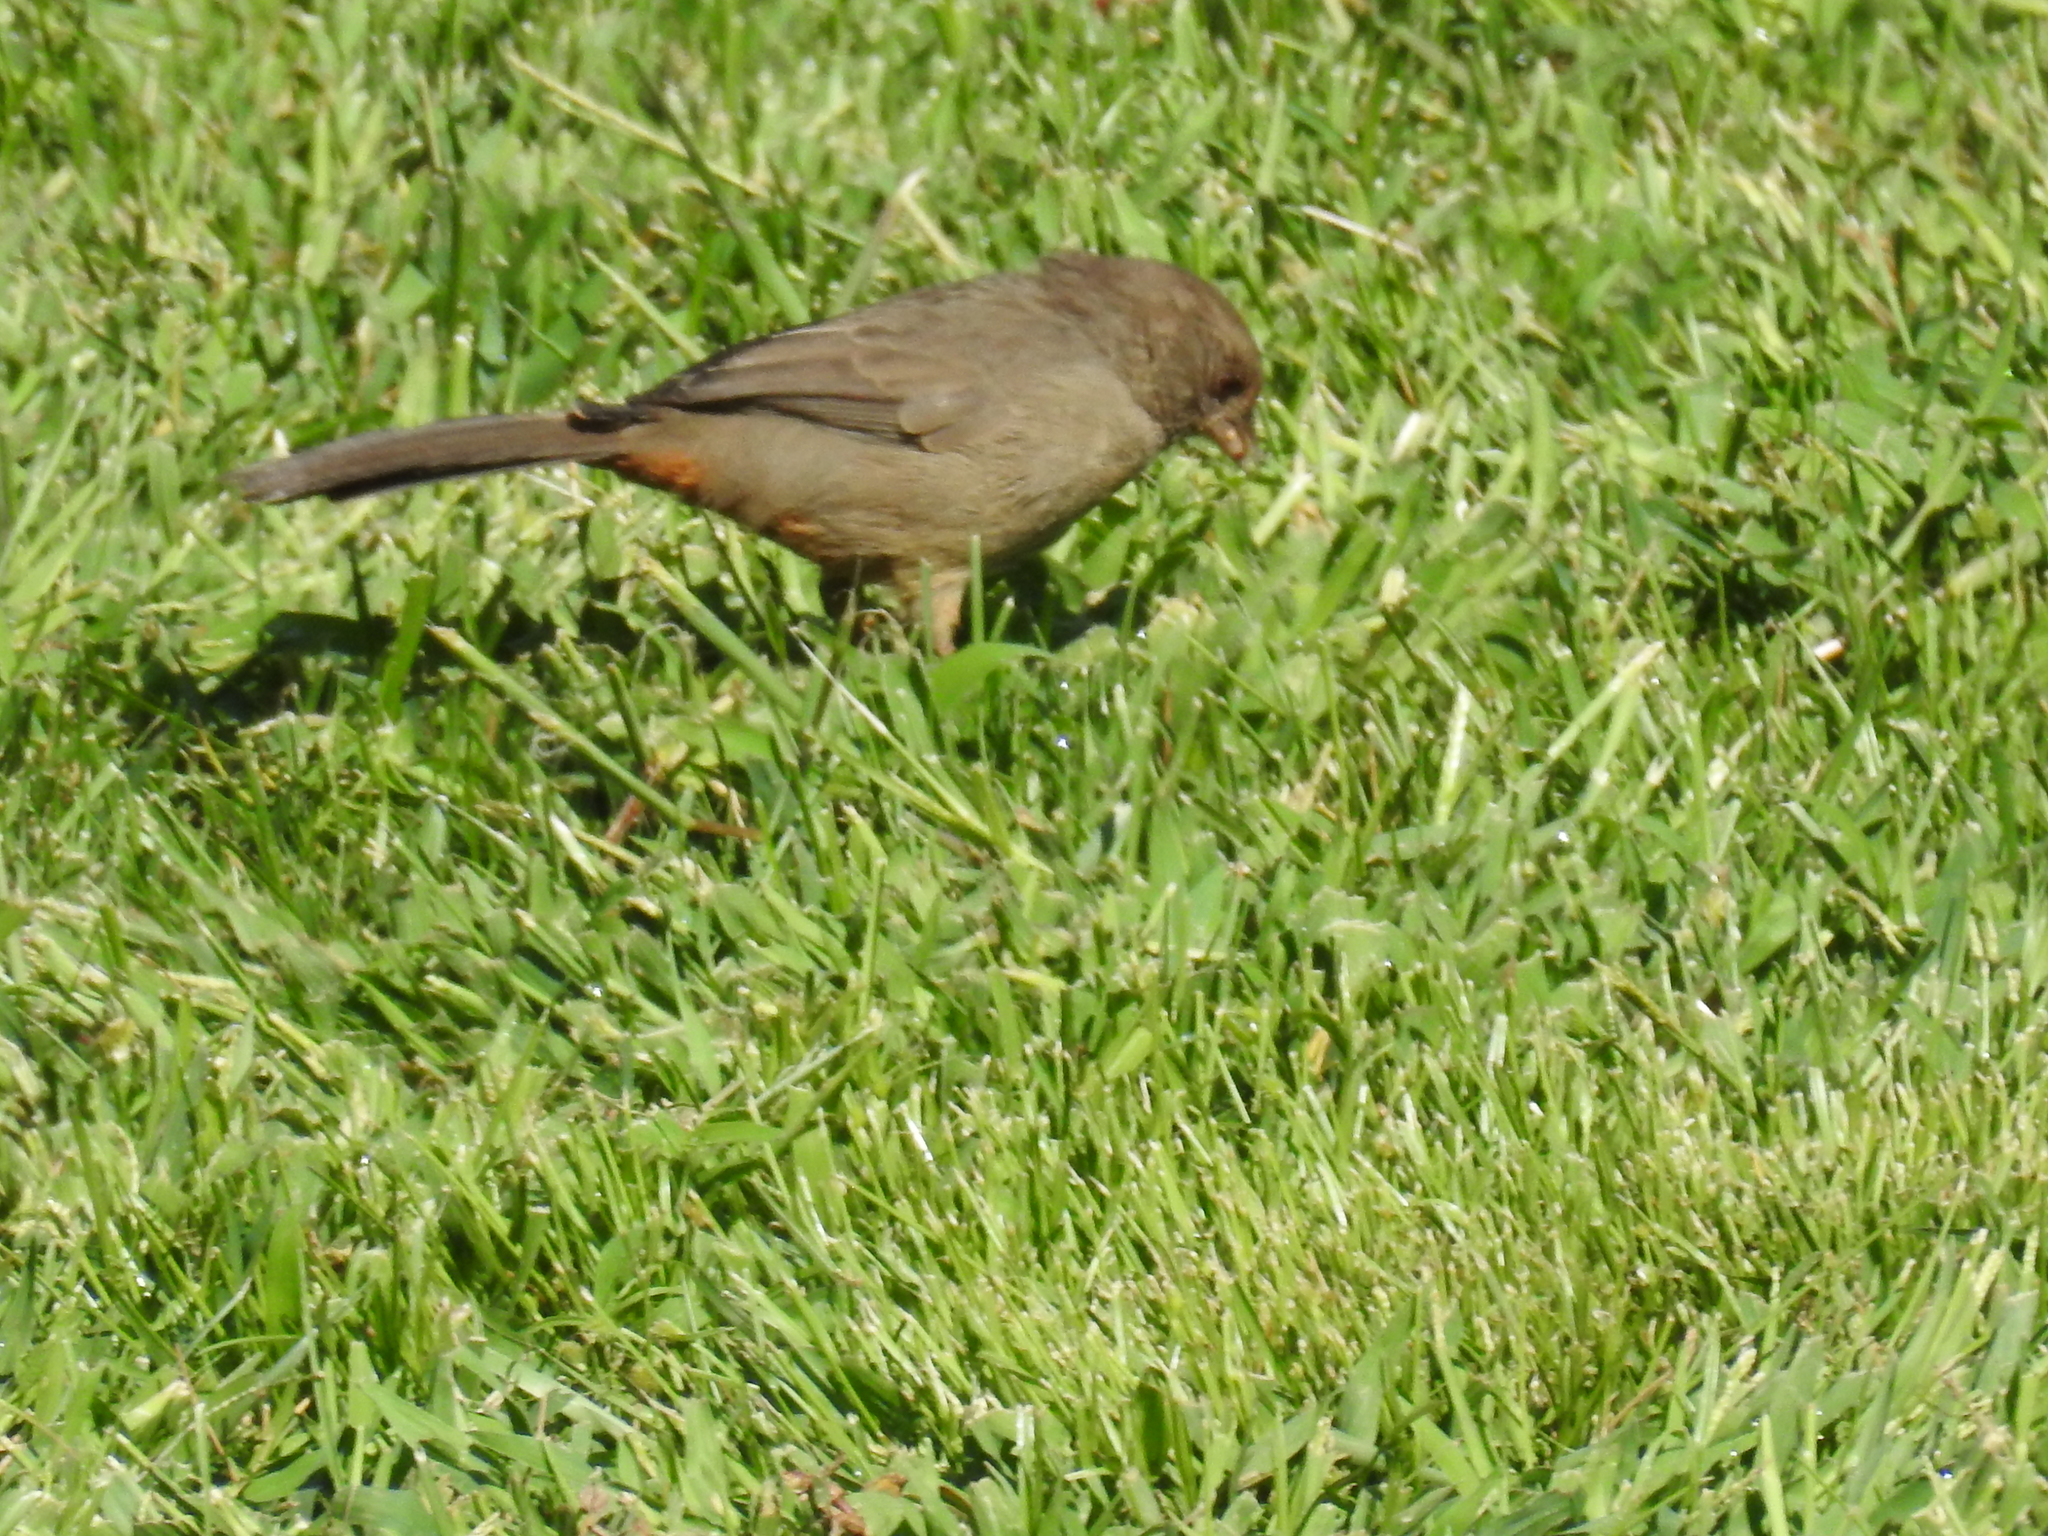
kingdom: Animalia
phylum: Chordata
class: Aves
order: Passeriformes
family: Passerellidae
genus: Melozone
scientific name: Melozone crissalis
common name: California towhee
